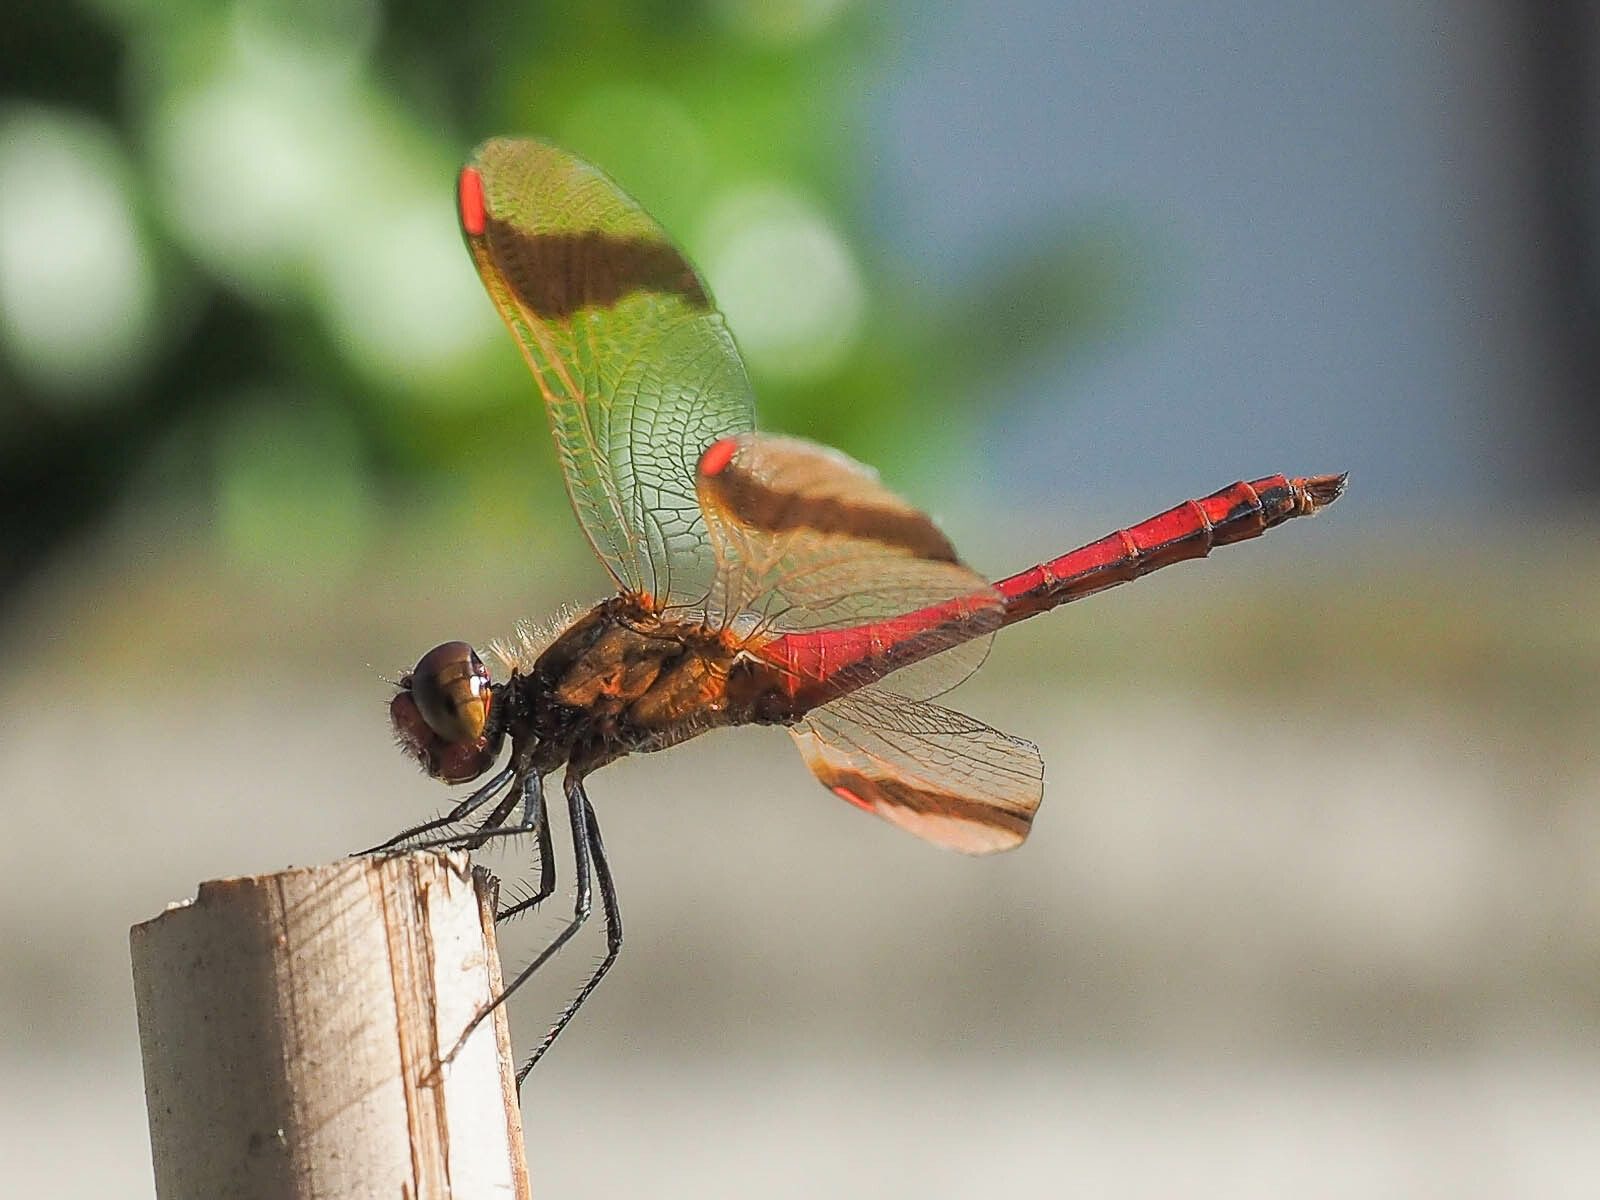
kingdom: Animalia
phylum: Arthropoda
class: Insecta
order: Odonata
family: Libellulidae
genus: Sympetrum
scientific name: Sympetrum pedemontanum
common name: Banded darter
